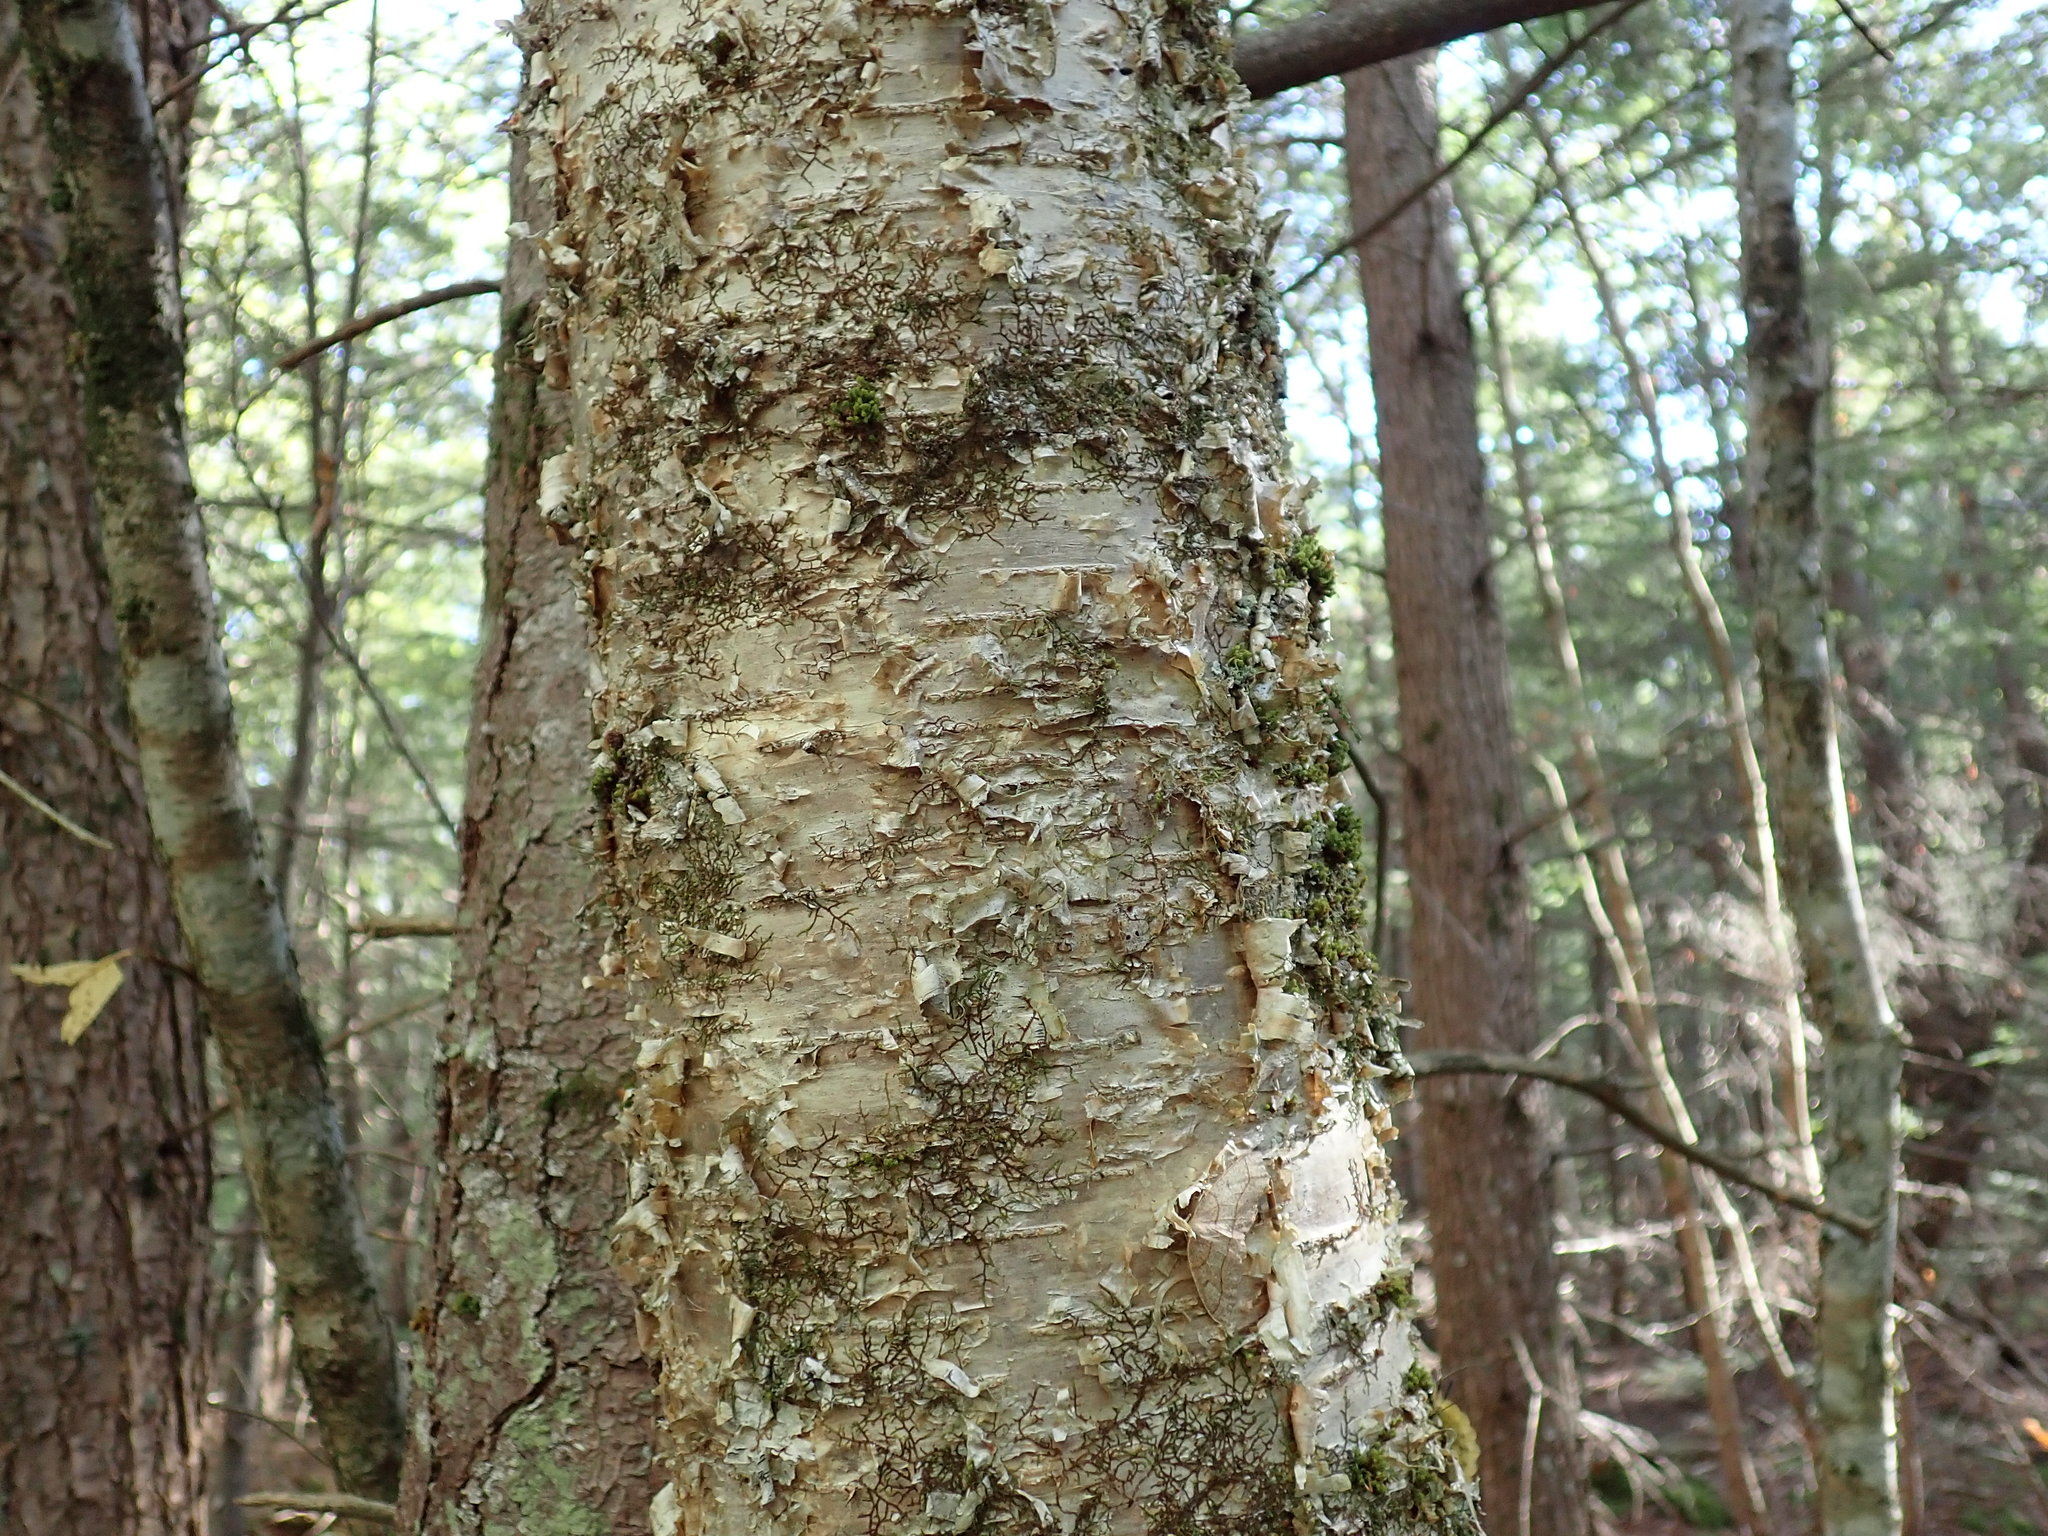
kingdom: Plantae
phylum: Tracheophyta
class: Magnoliopsida
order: Fagales
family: Betulaceae
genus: Betula
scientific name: Betula alleghaniensis
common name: Yellow birch
